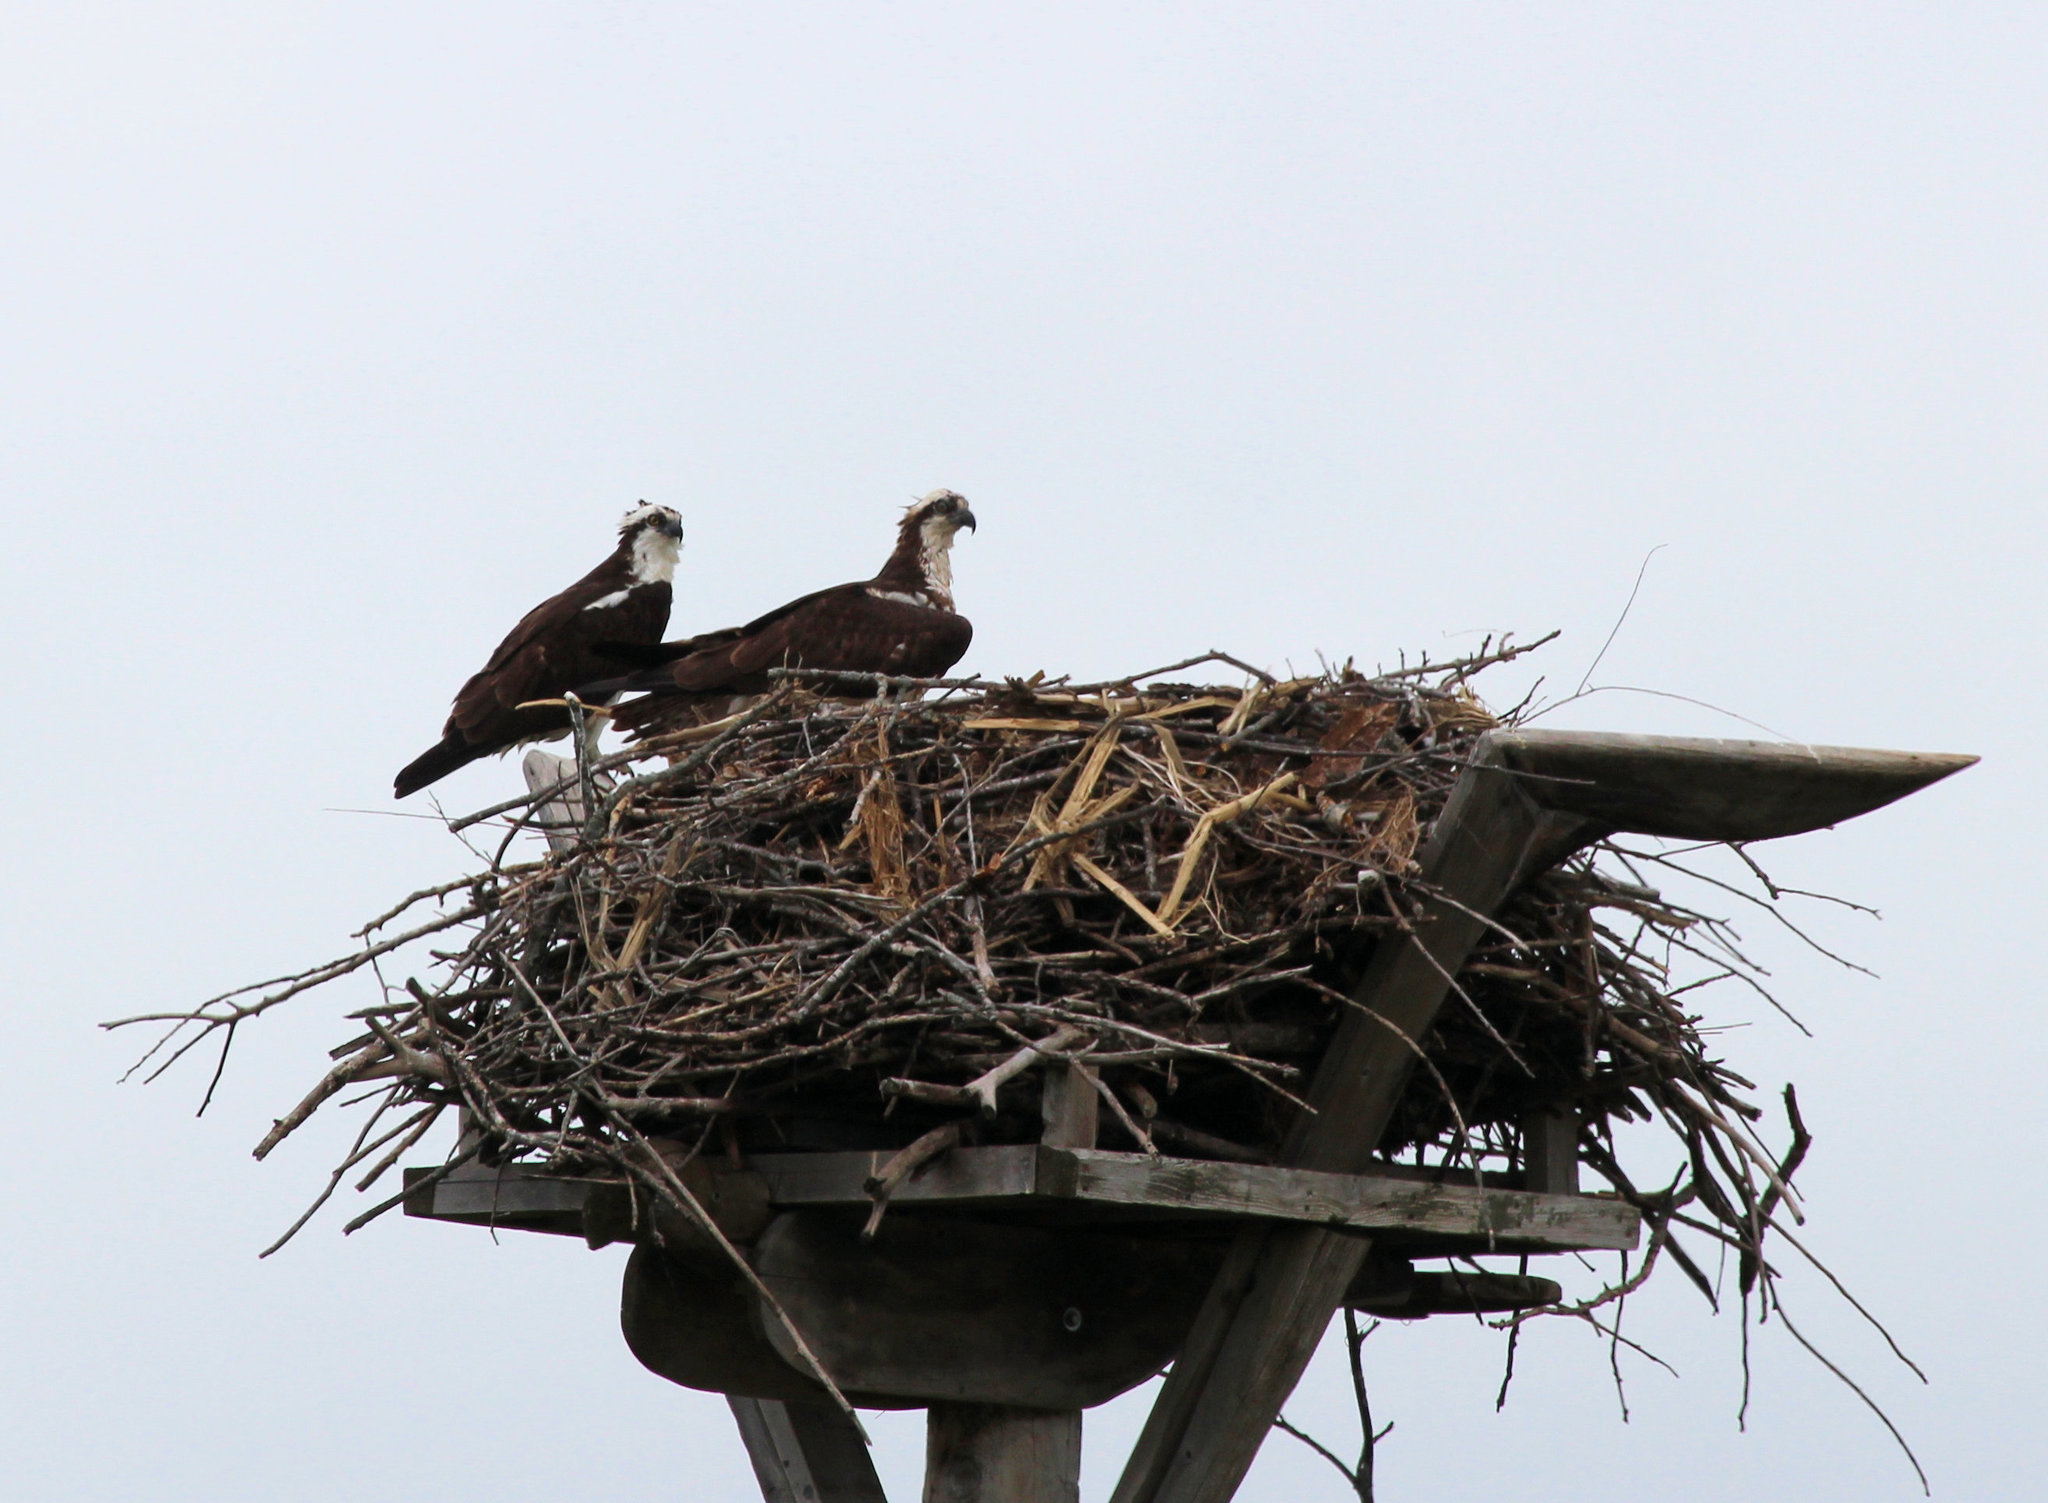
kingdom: Animalia
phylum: Chordata
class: Aves
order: Accipitriformes
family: Pandionidae
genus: Pandion
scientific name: Pandion haliaetus
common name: Osprey
